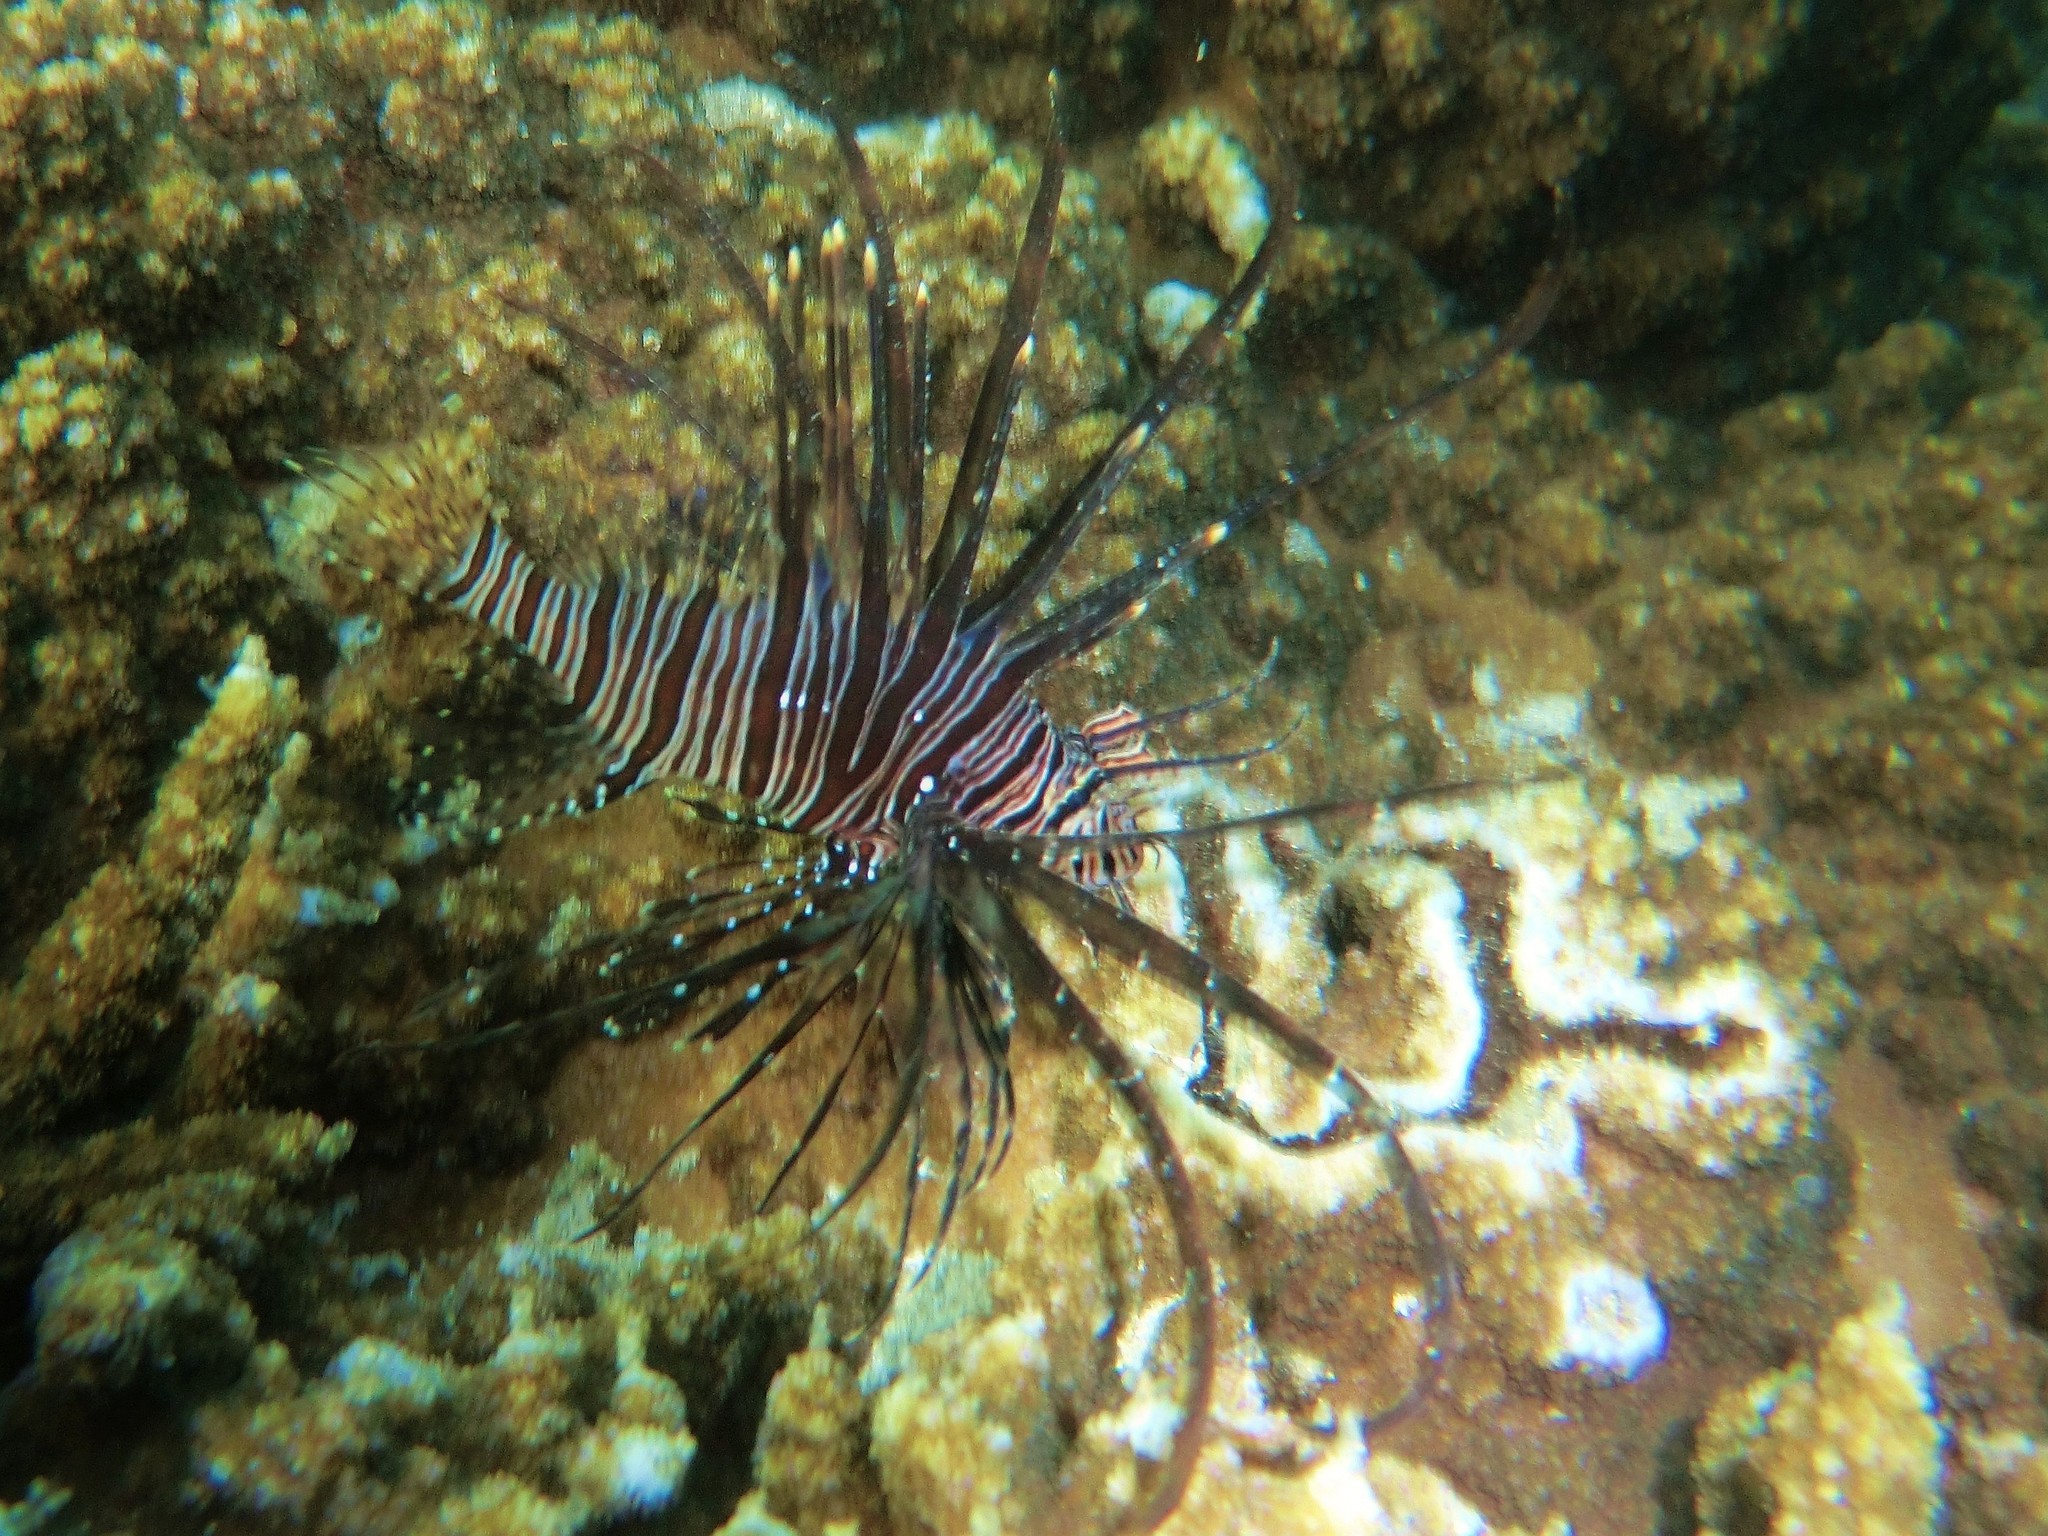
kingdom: Animalia
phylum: Chordata
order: Scorpaeniformes
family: Scorpaenidae
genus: Pterois
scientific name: Pterois volitans
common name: Lionfish
